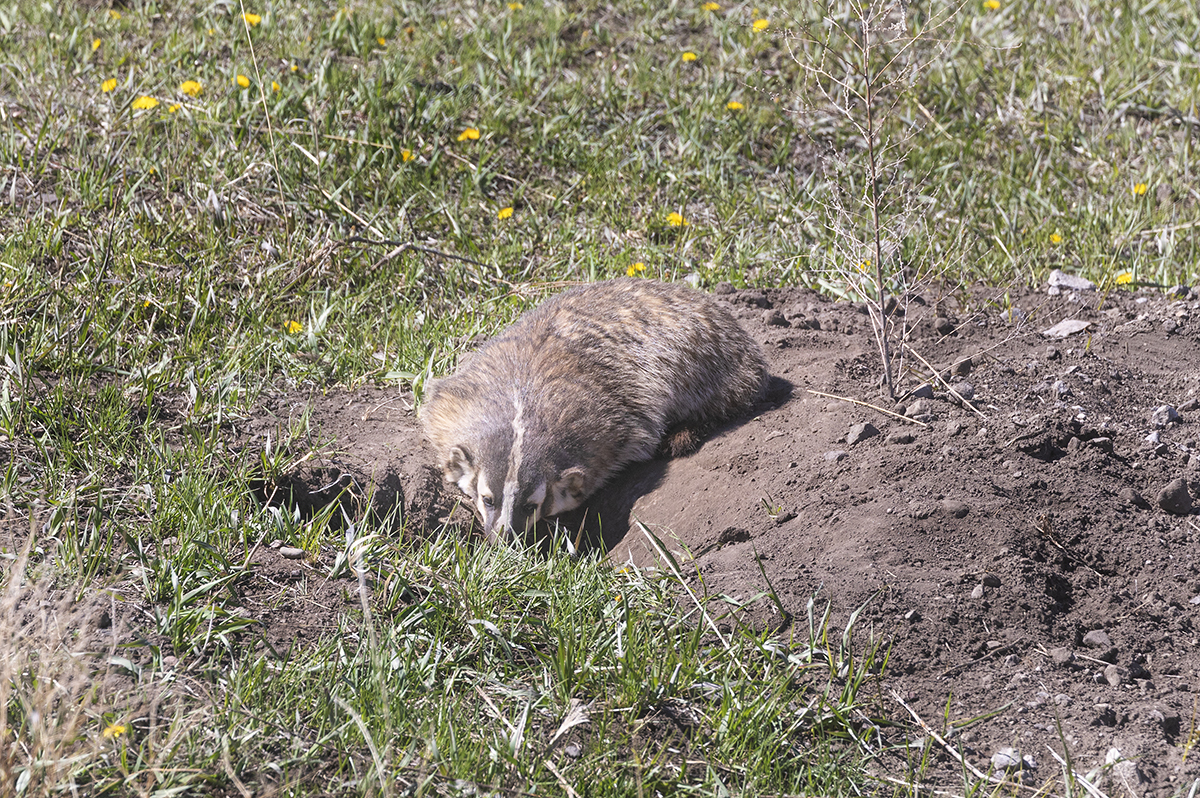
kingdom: Animalia
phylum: Chordata
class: Mammalia
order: Carnivora
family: Mustelidae
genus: Taxidea
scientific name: Taxidea taxus
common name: American badger
